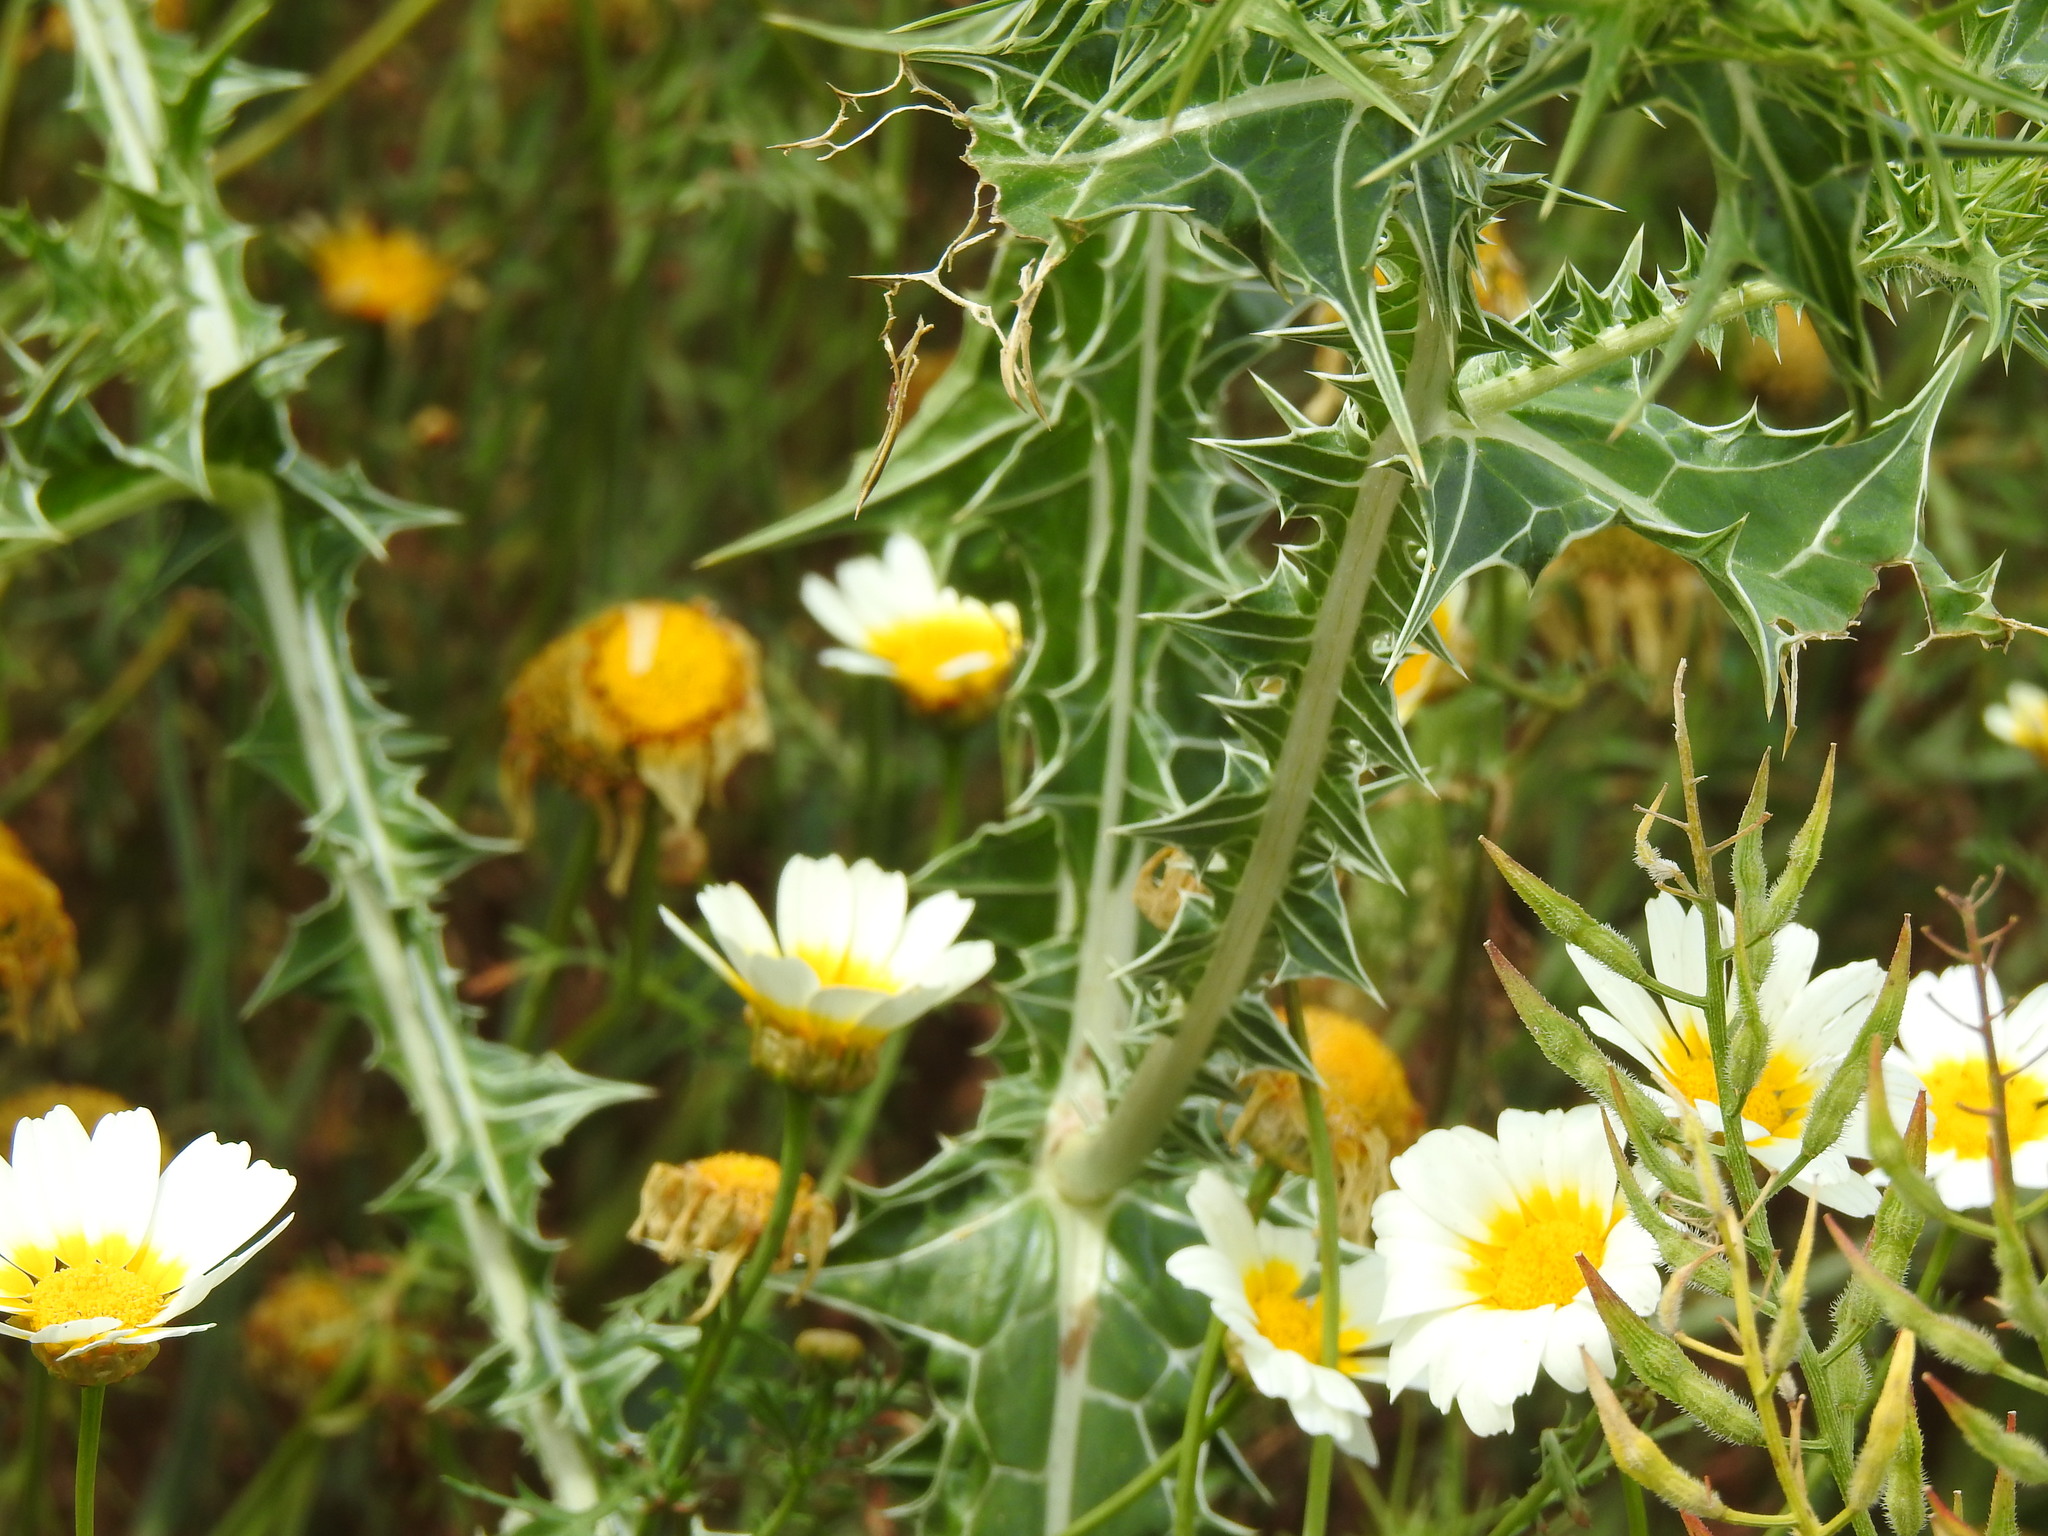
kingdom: Plantae
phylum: Tracheophyta
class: Magnoliopsida
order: Asterales
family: Asteraceae
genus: Scolymus
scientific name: Scolymus maculatus
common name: Spotted thistle
